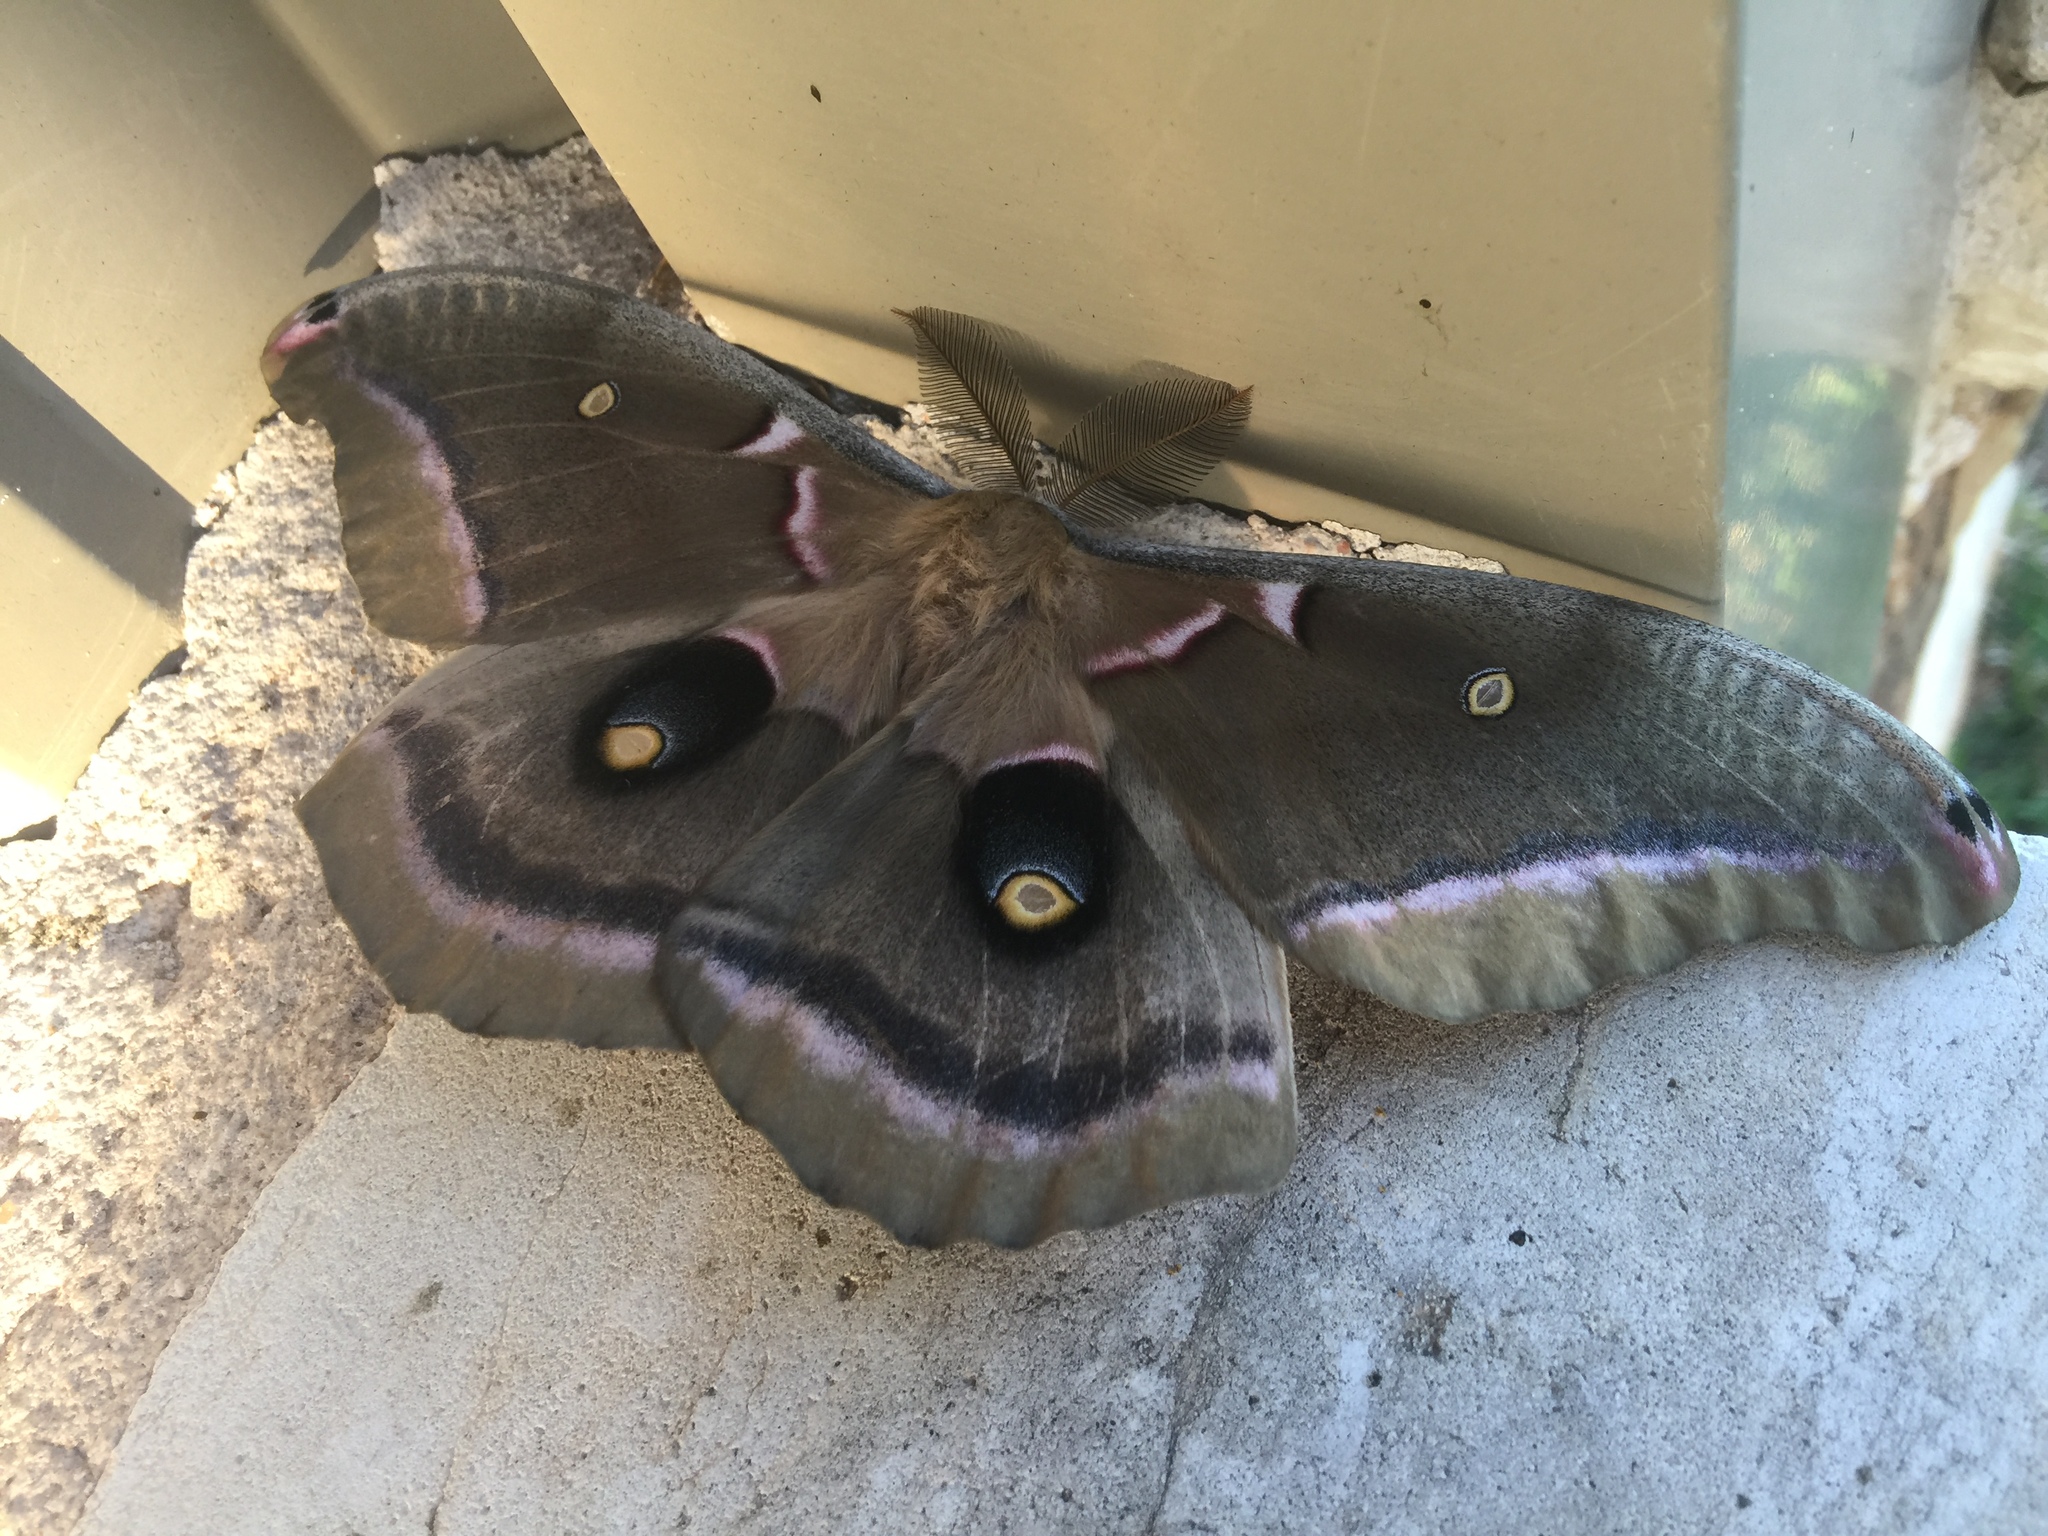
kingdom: Animalia
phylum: Arthropoda
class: Insecta
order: Lepidoptera
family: Saturniidae
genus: Antheraea
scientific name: Antheraea polyphemus
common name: Polyphemus moth
